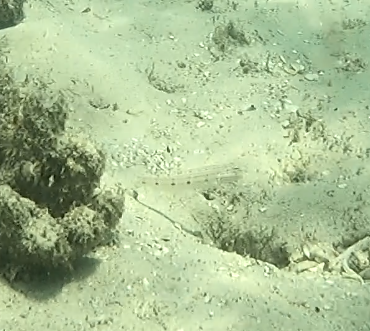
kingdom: Animalia
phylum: Chordata
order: Perciformes
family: Gobiidae
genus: Valenciennea
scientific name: Valenciennea longipinnis
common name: Longfinned goby
